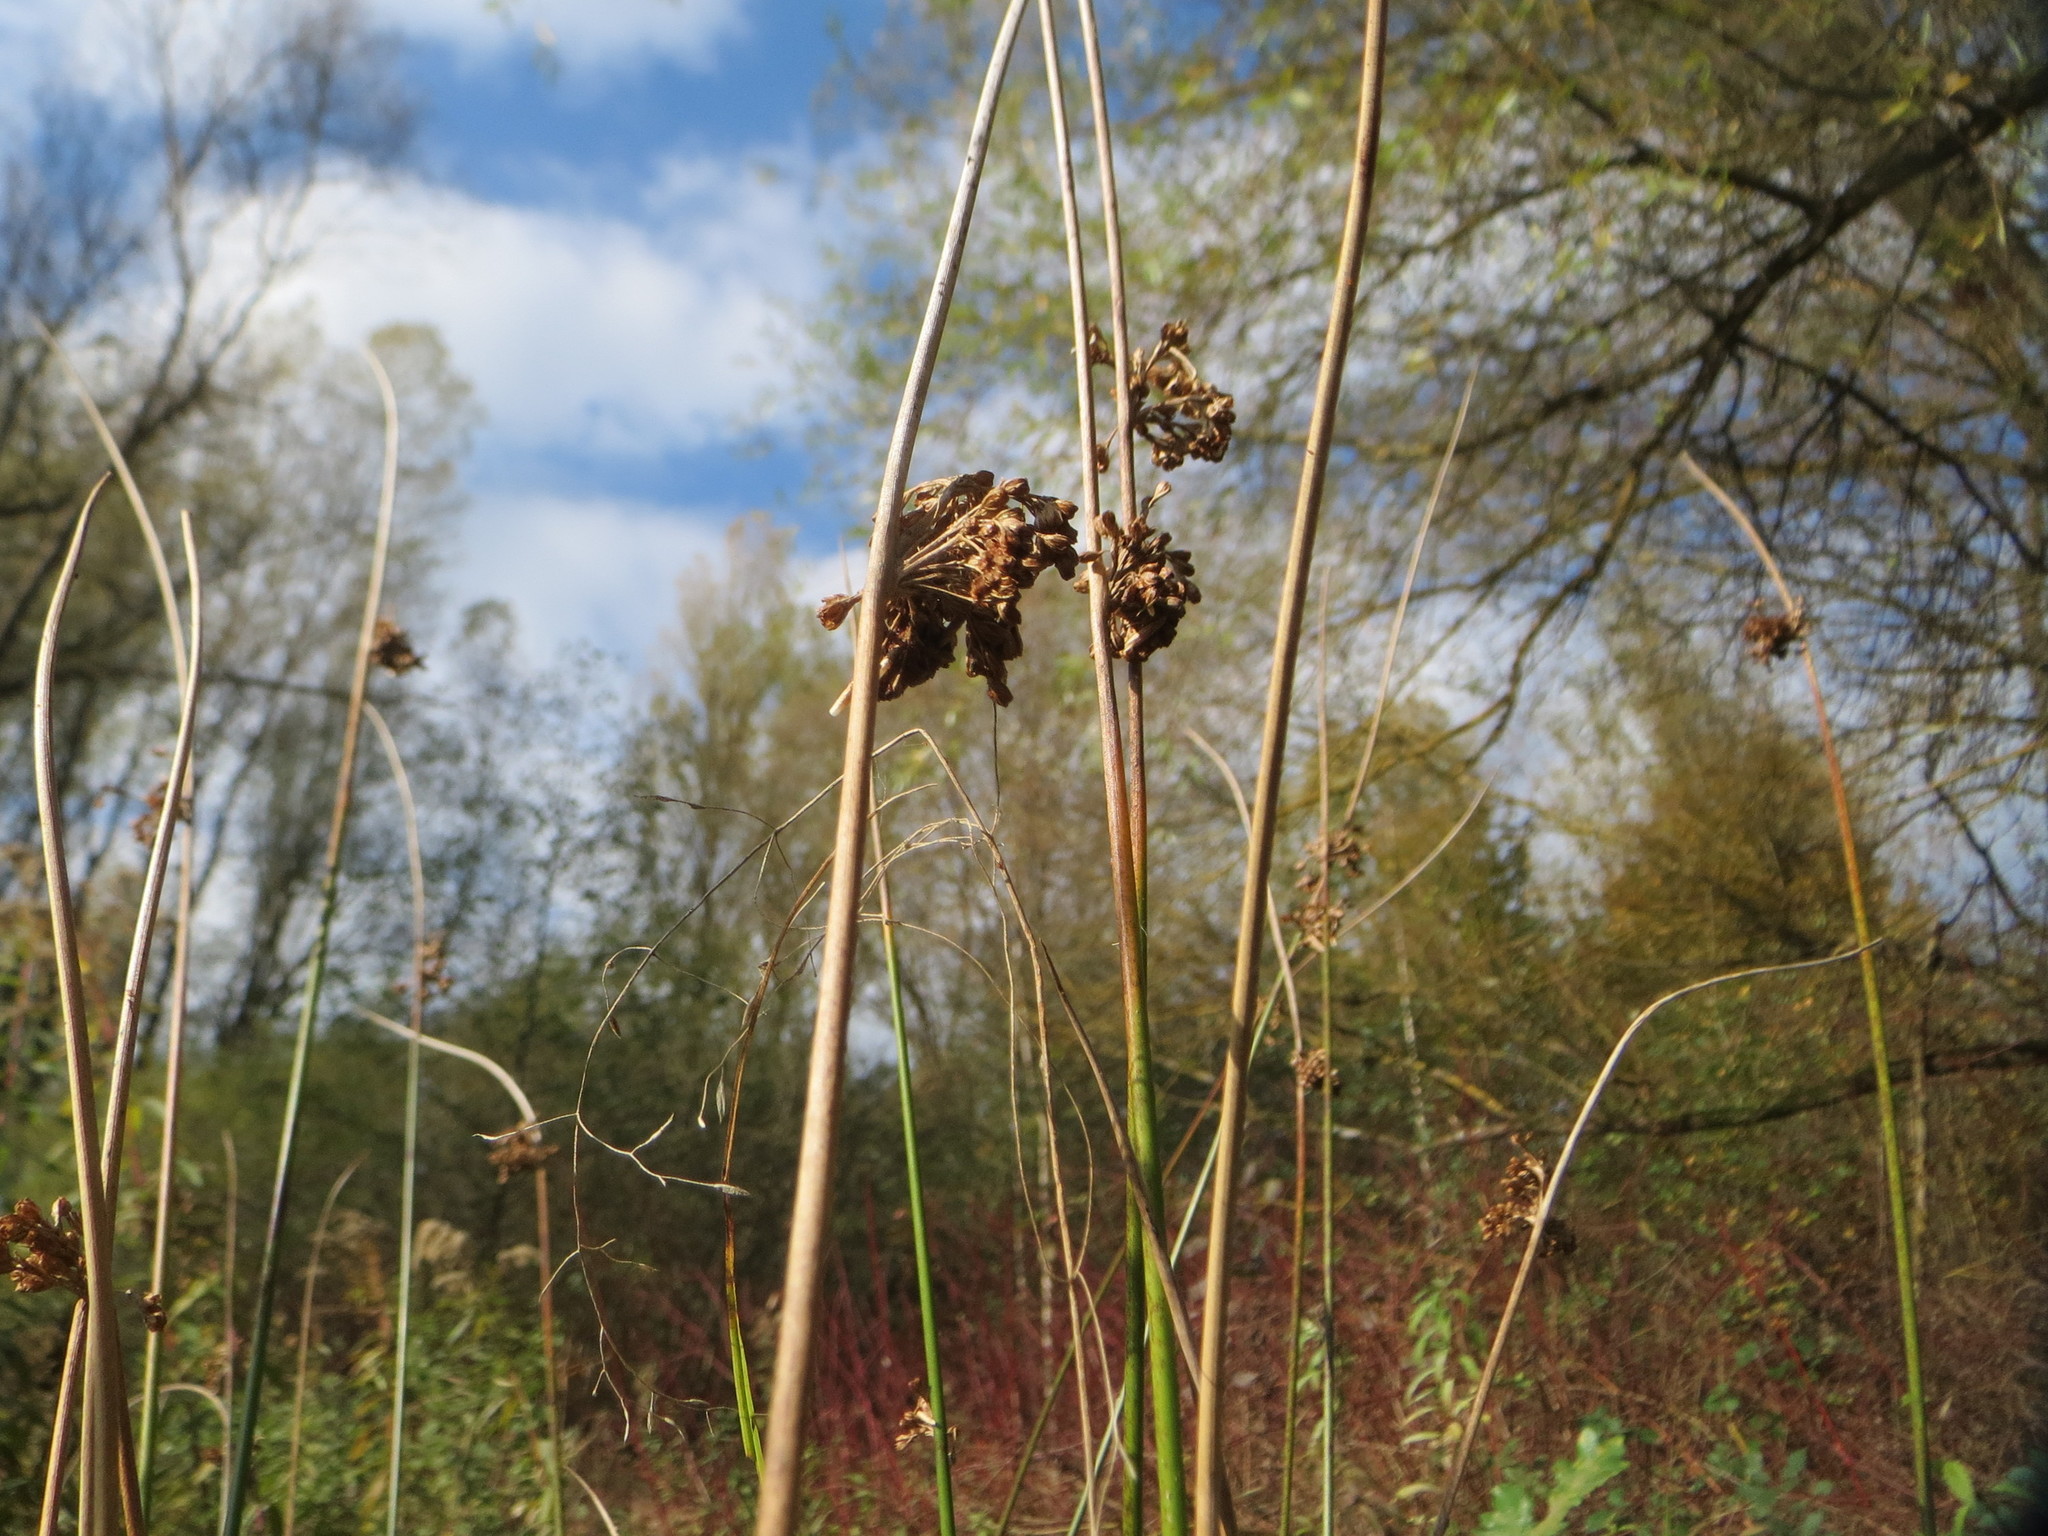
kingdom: Plantae
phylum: Tracheophyta
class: Liliopsida
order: Poales
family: Juncaceae
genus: Juncus
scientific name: Juncus effusus
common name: Soft rush
